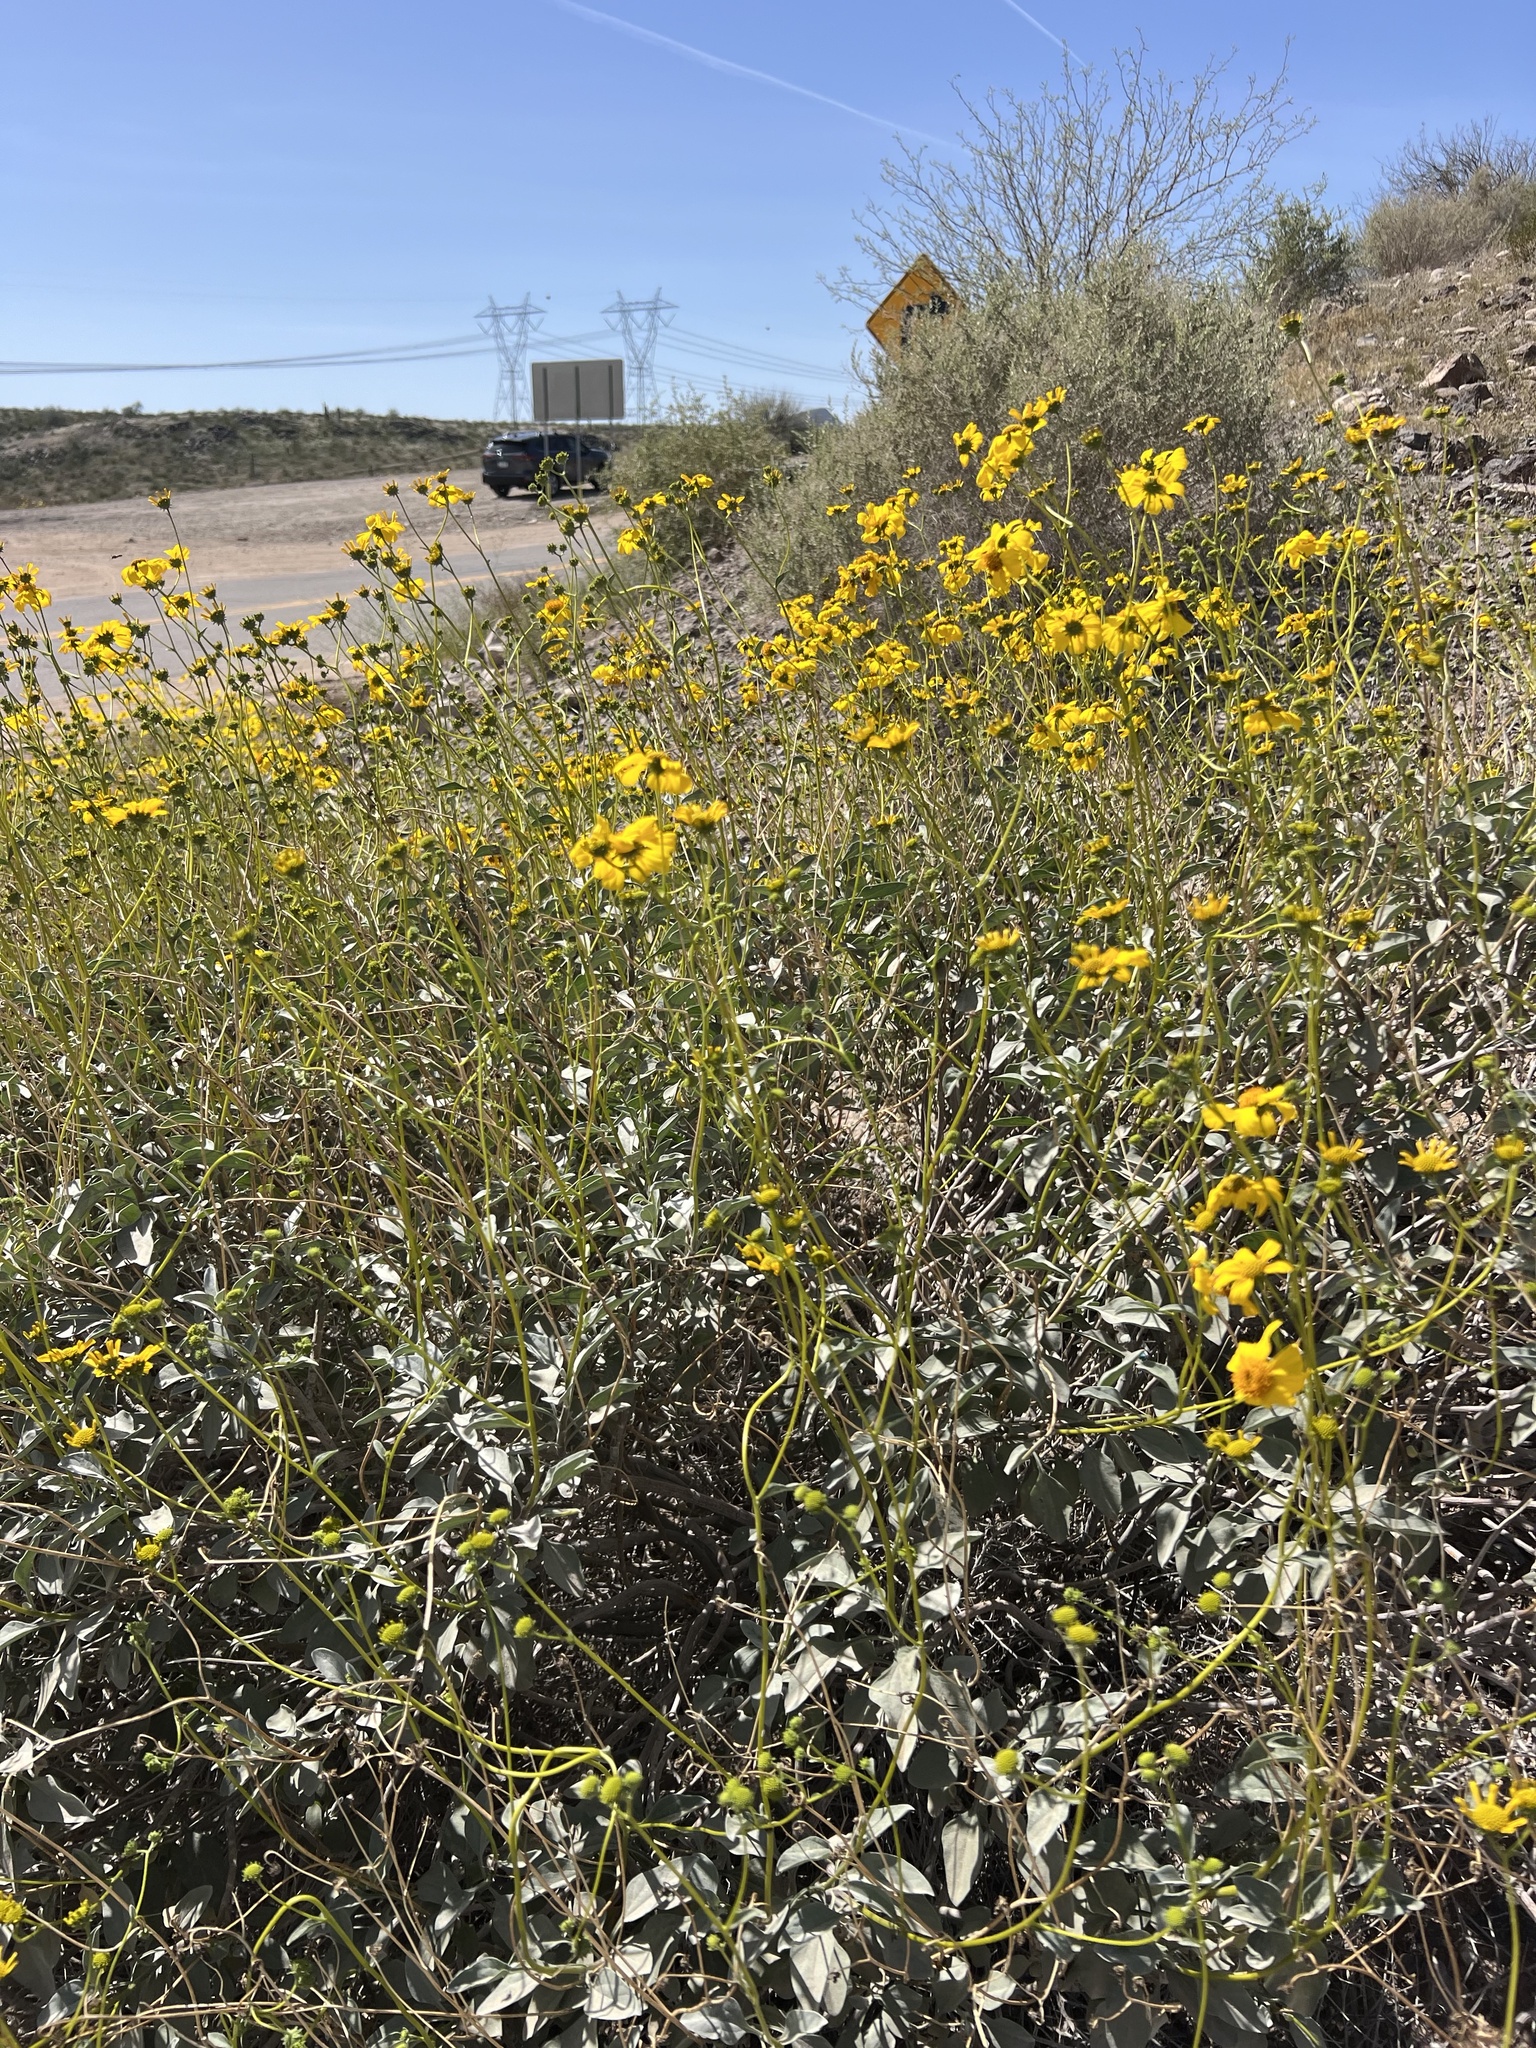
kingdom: Plantae
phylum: Tracheophyta
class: Magnoliopsida
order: Asterales
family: Asteraceae
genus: Encelia
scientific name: Encelia farinosa
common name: Brittlebush
